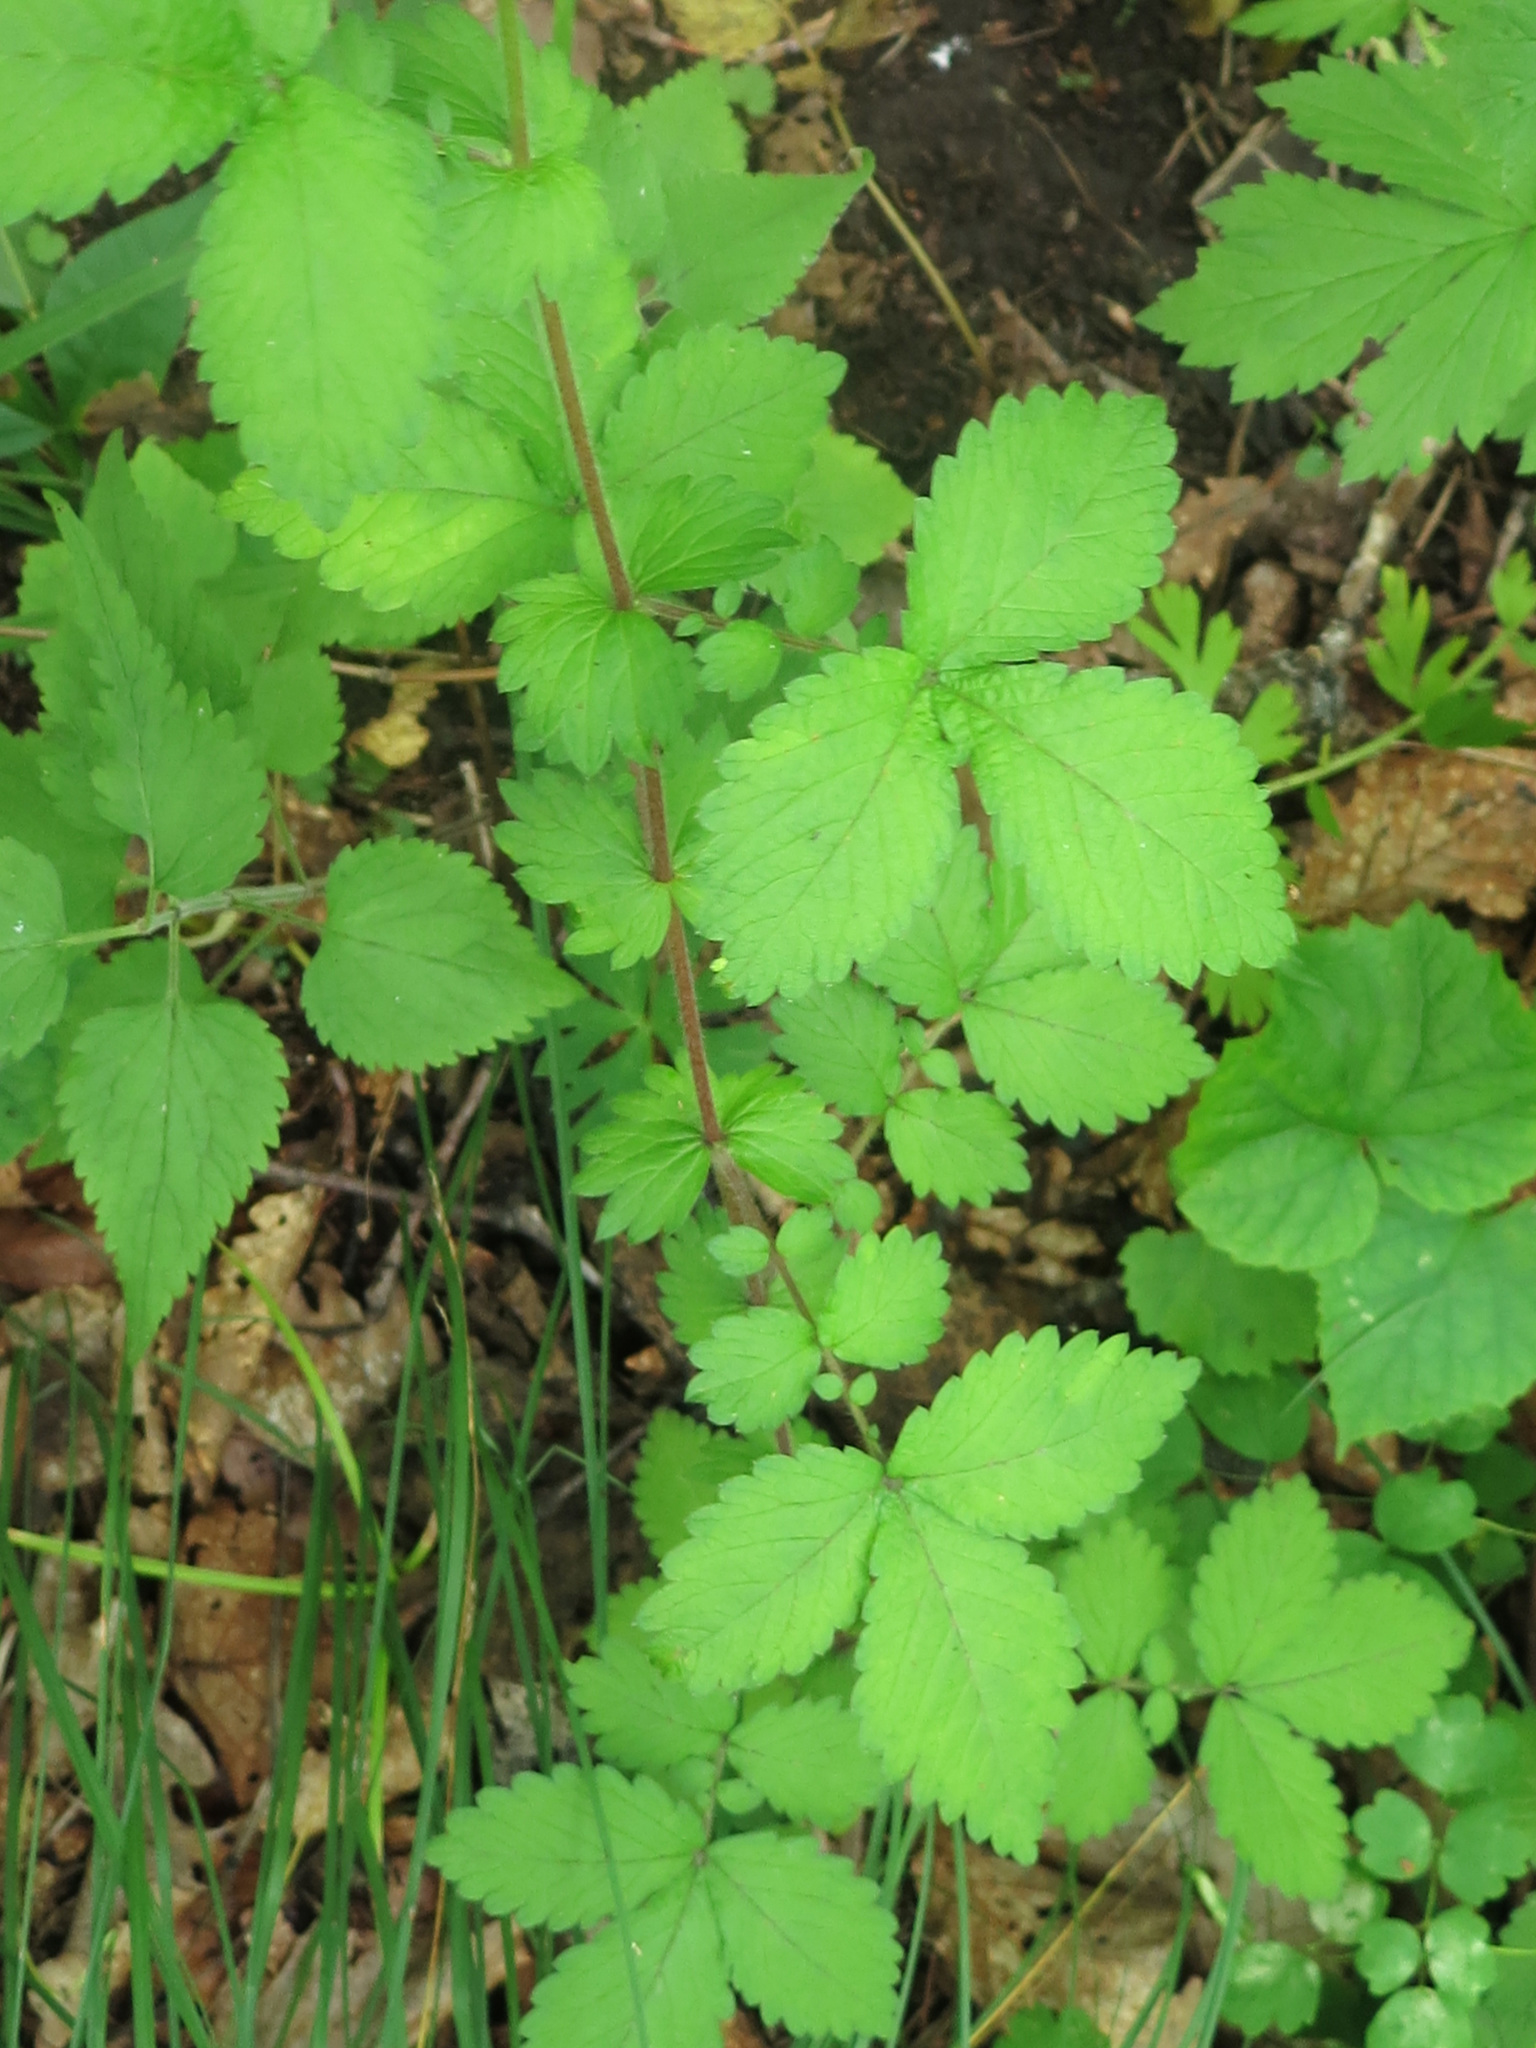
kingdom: Plantae
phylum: Tracheophyta
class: Magnoliopsida
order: Rosales
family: Rosaceae
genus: Agrimonia
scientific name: Agrimonia coreana
